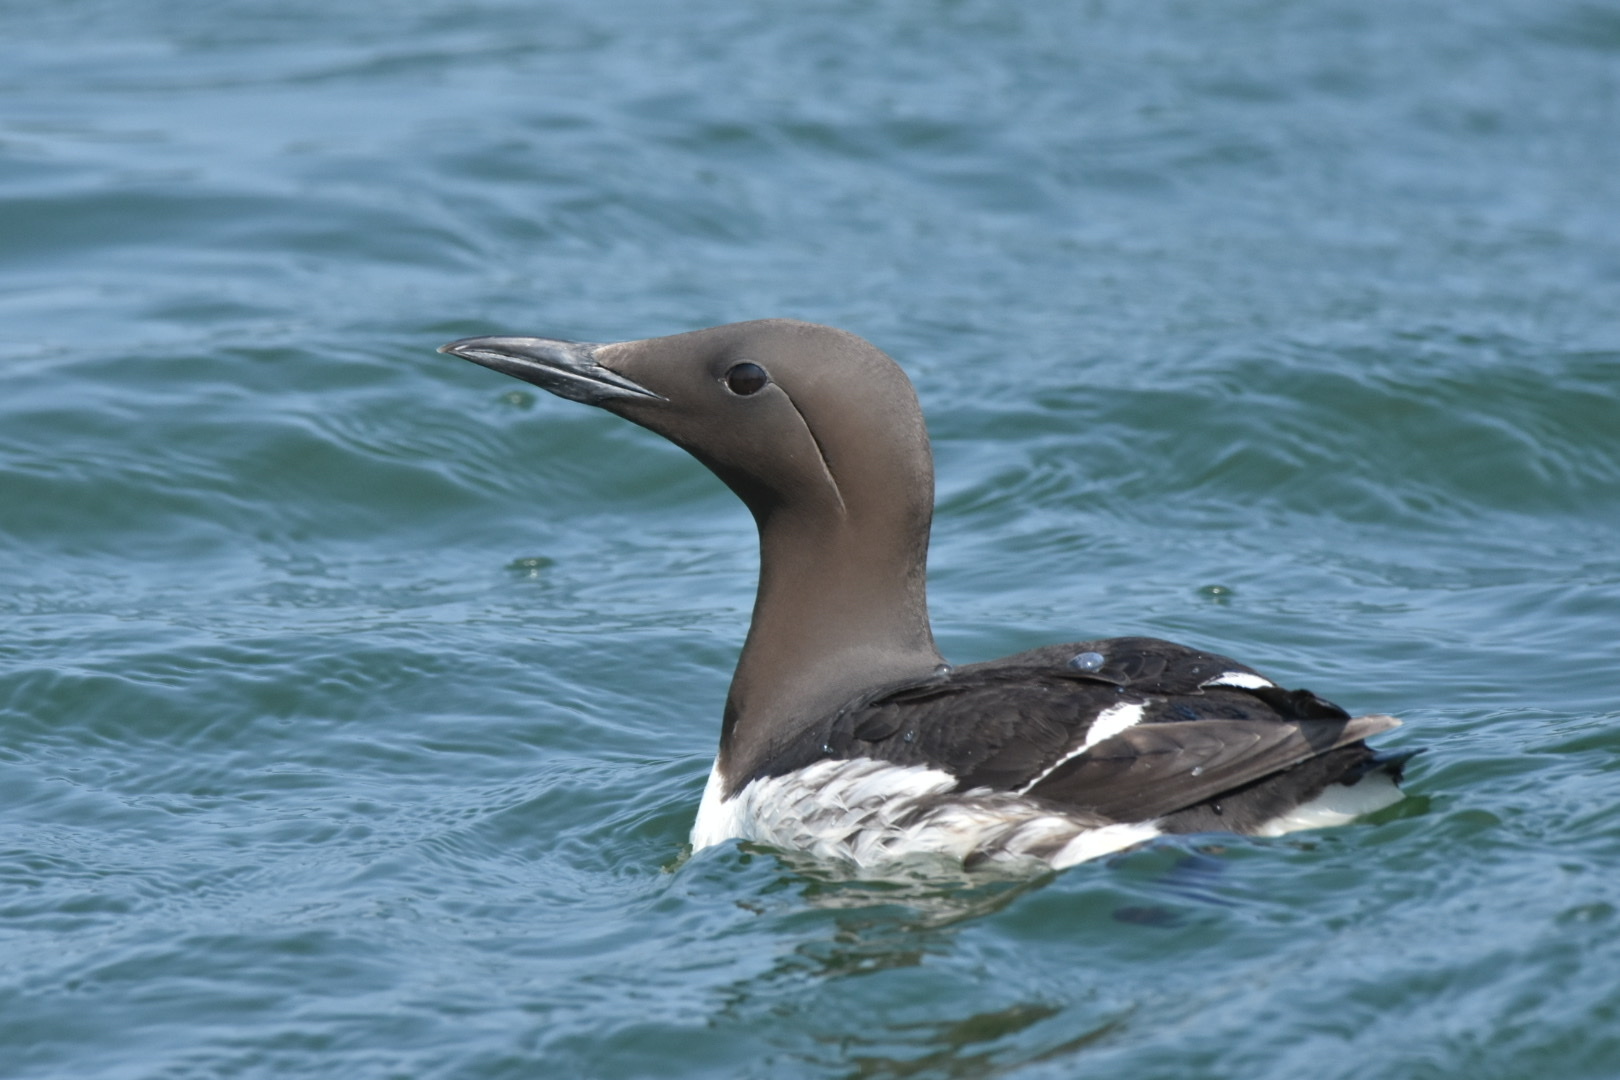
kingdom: Animalia
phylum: Chordata
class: Aves
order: Charadriiformes
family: Alcidae
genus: Uria
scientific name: Uria aalge
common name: Common murre
